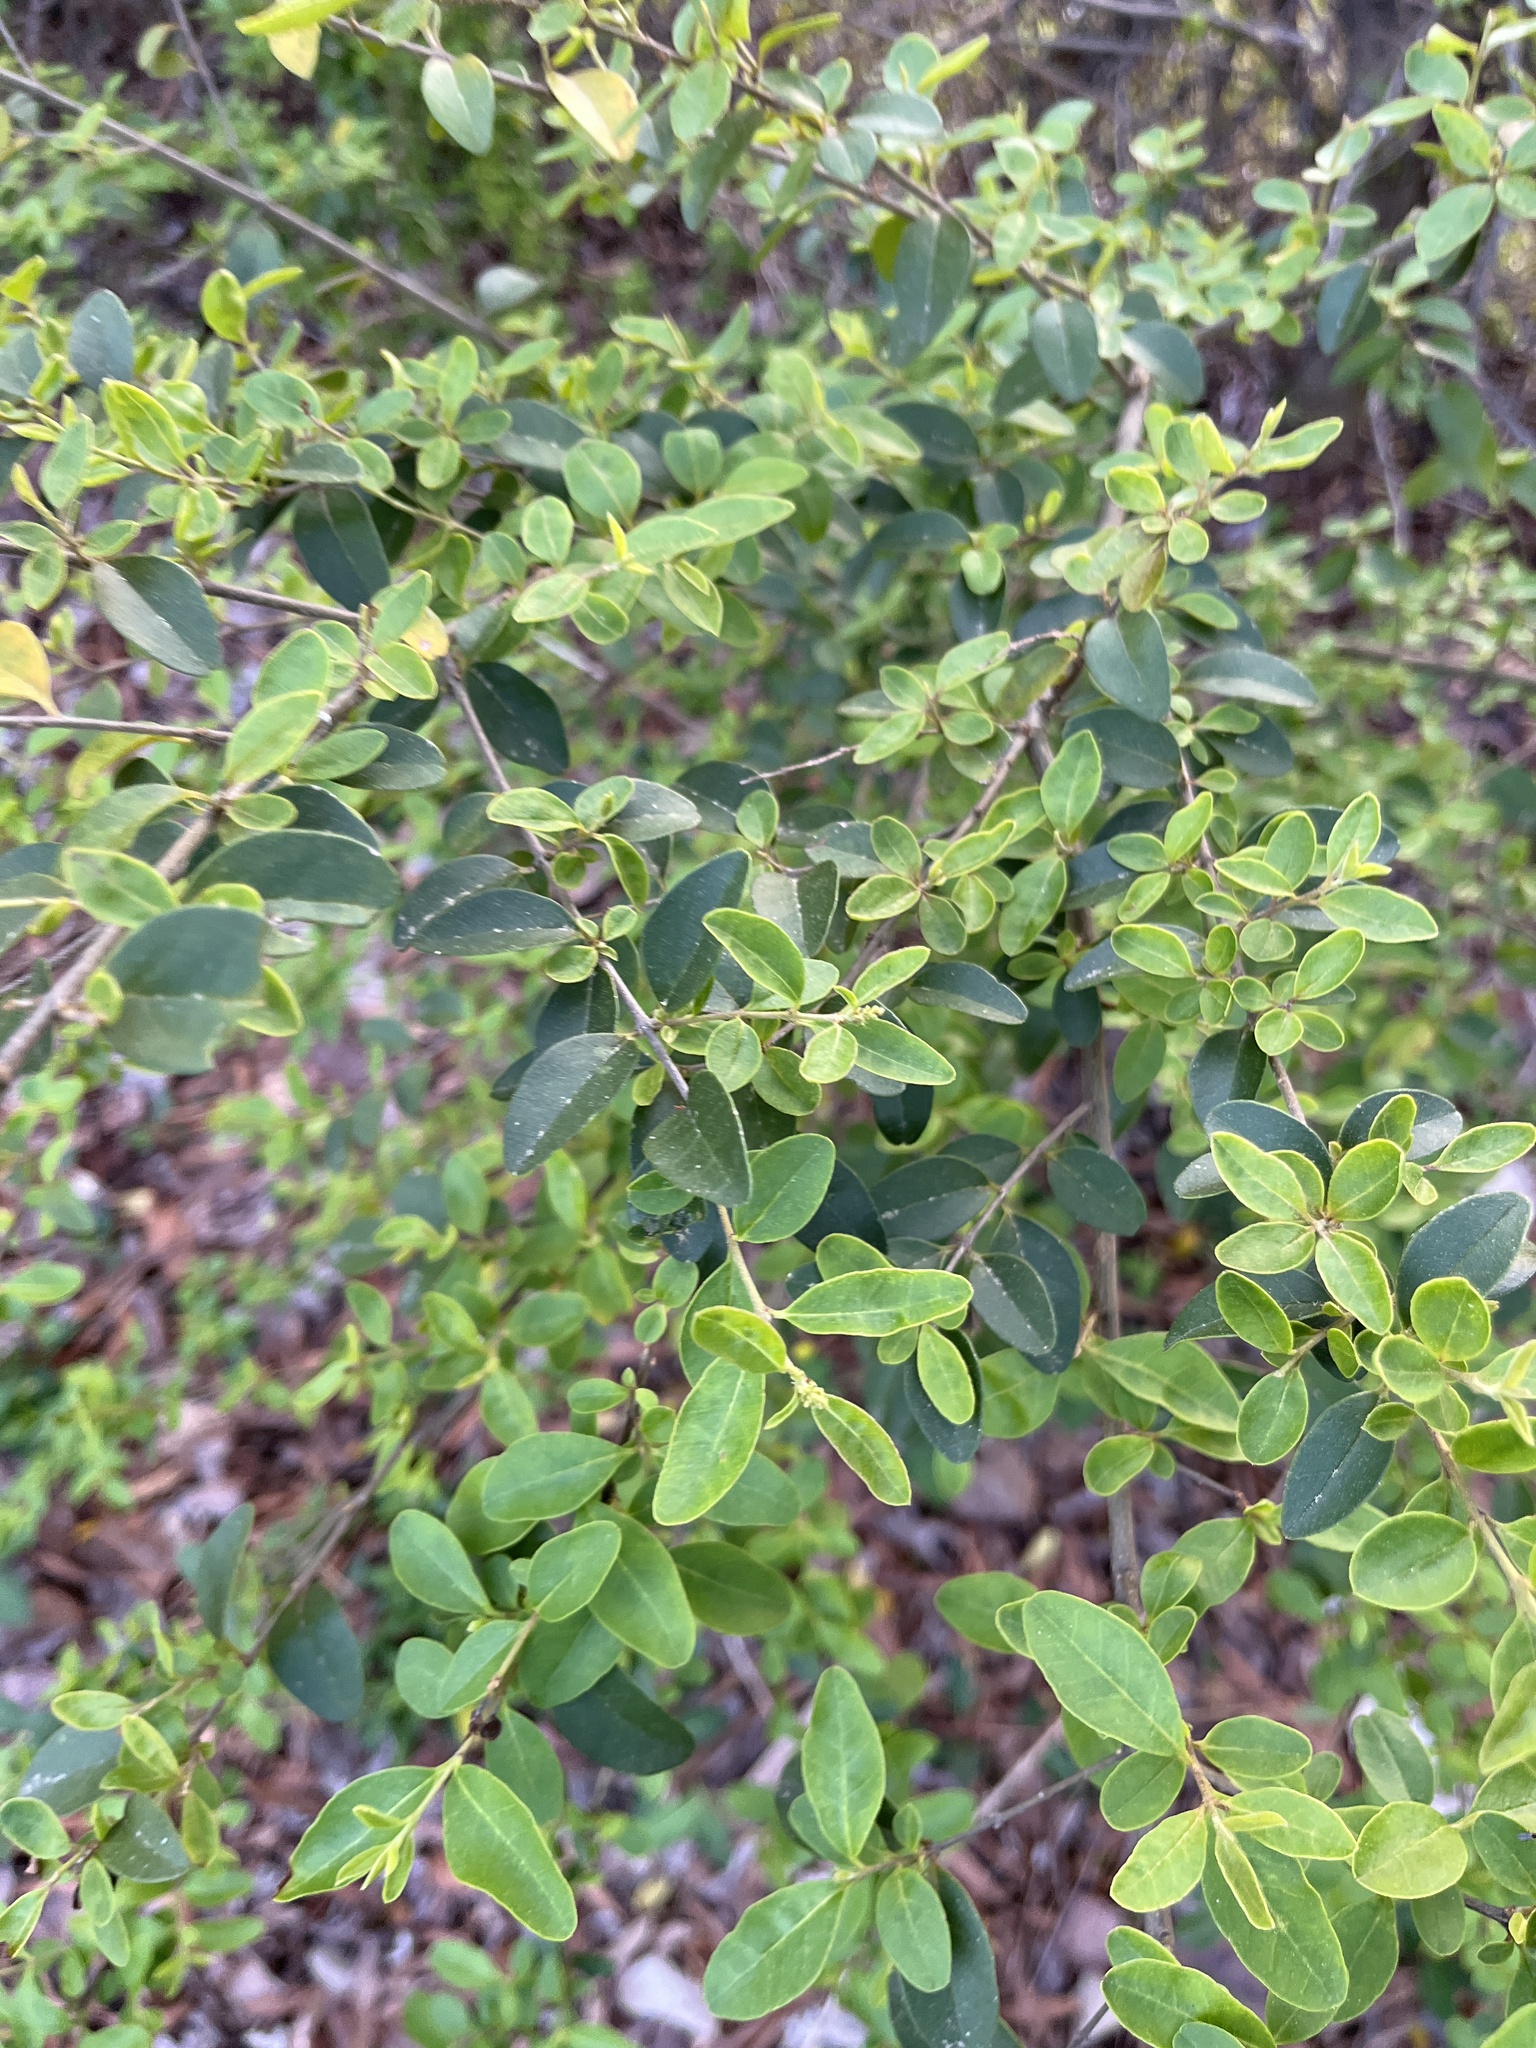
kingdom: Plantae
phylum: Tracheophyta
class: Magnoliopsida
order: Lamiales
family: Oleaceae
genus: Ligustrum
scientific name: Ligustrum sinense
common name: Chinese privet
